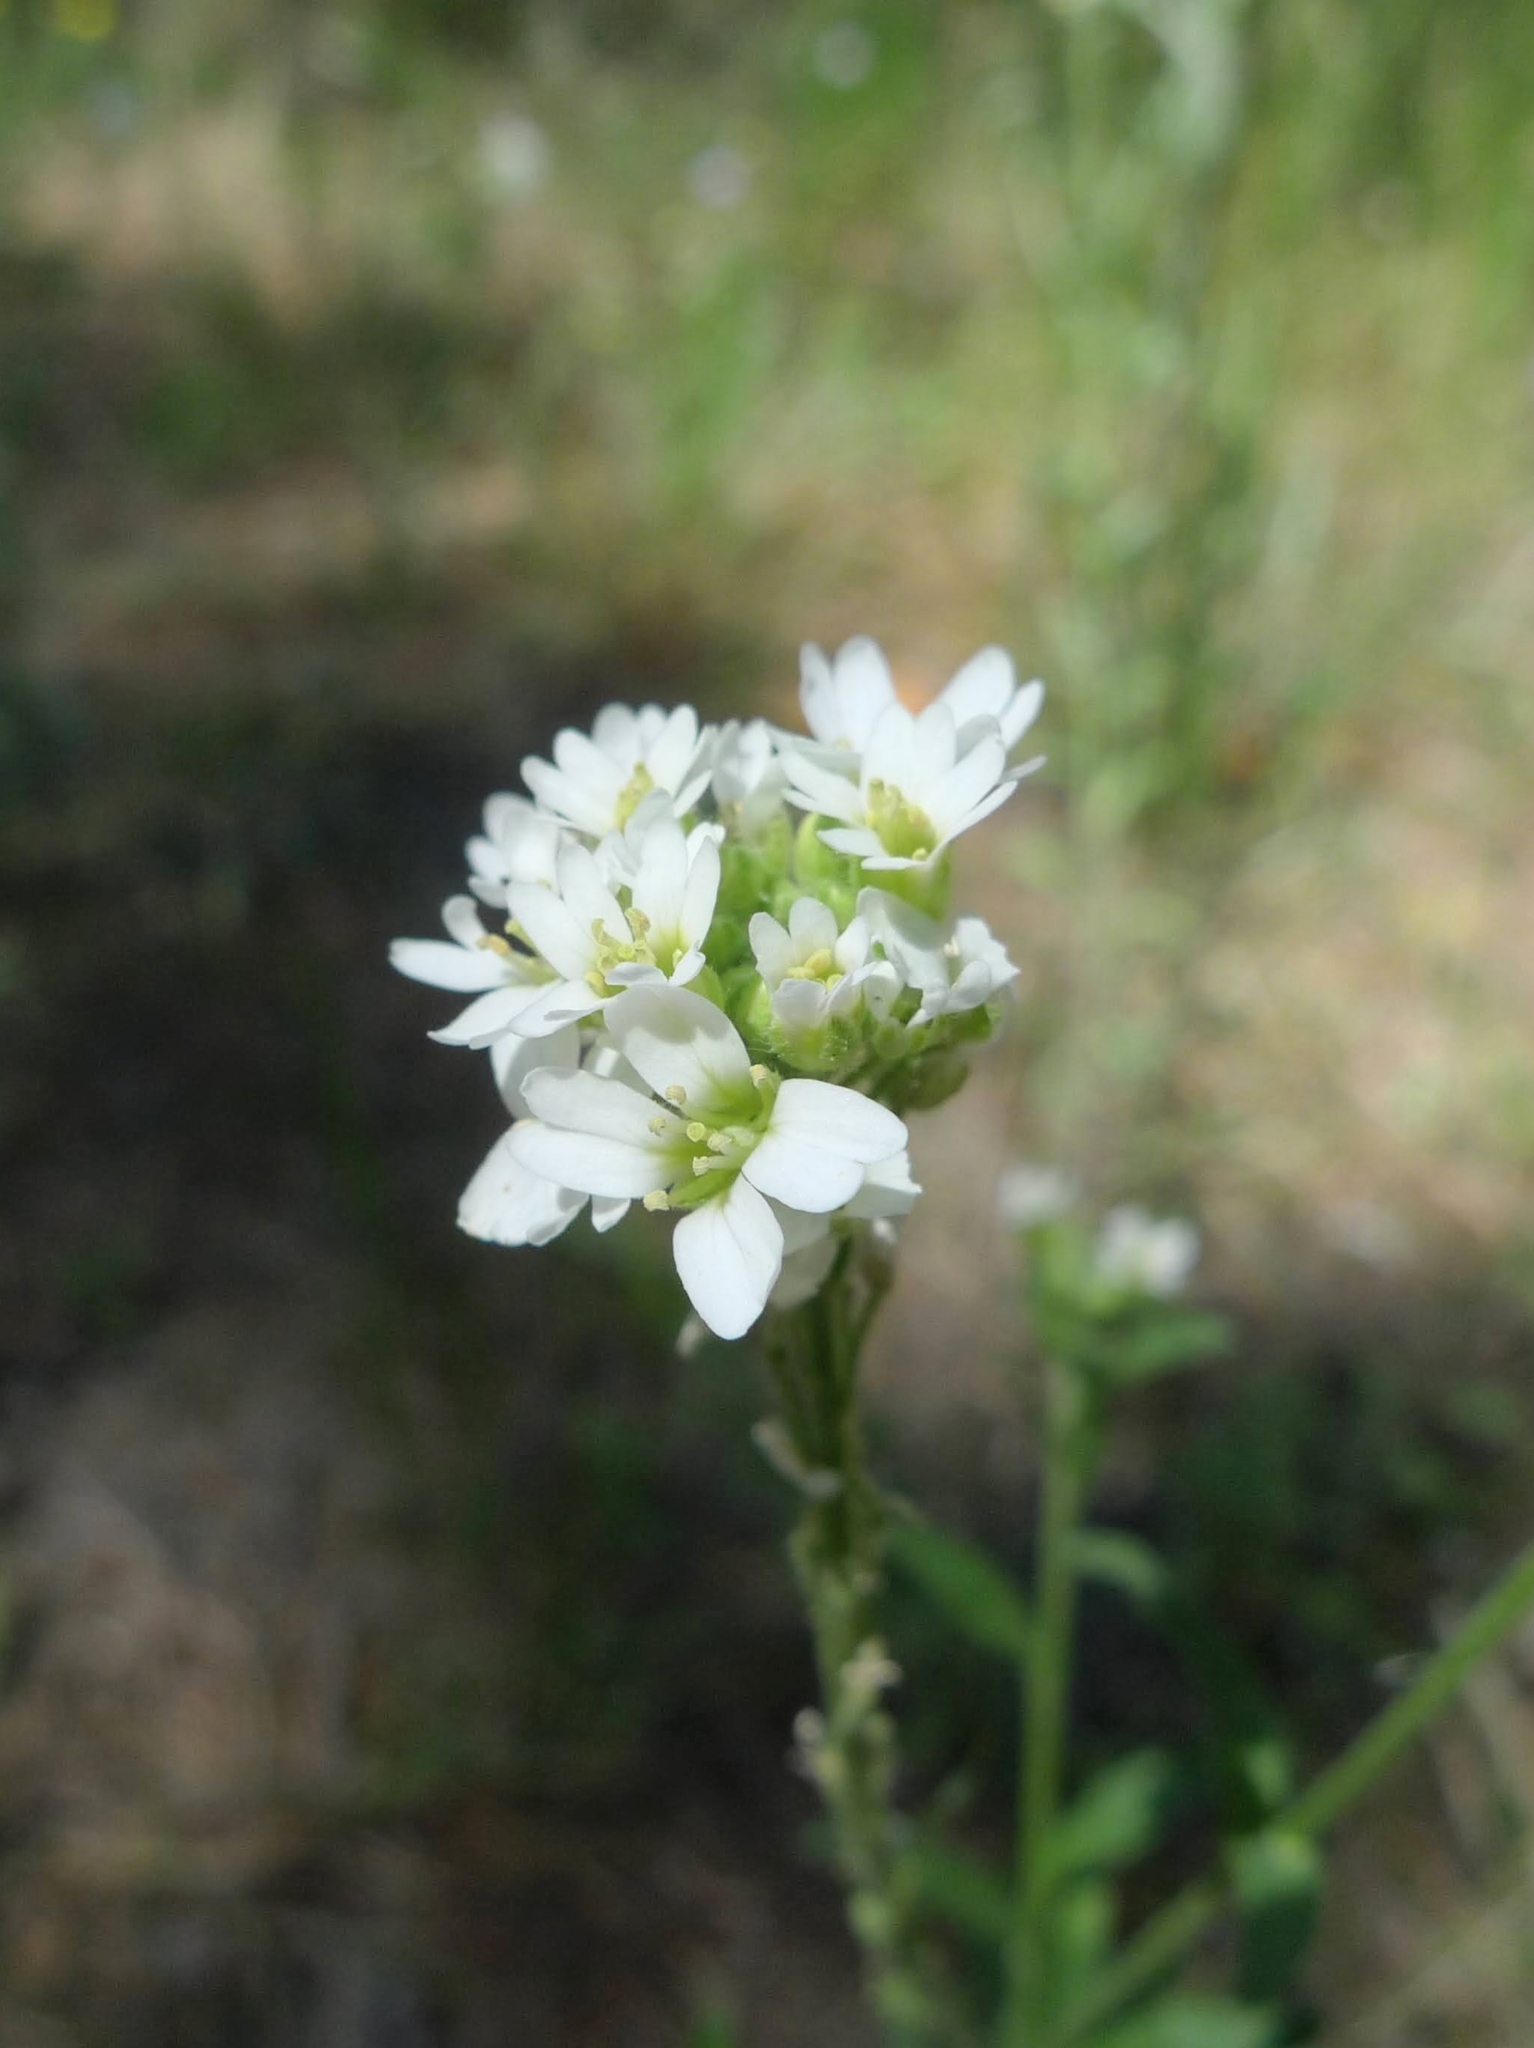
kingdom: Plantae
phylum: Tracheophyta
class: Magnoliopsida
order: Brassicales
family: Brassicaceae
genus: Berteroa
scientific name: Berteroa incana
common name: Hoary alison
